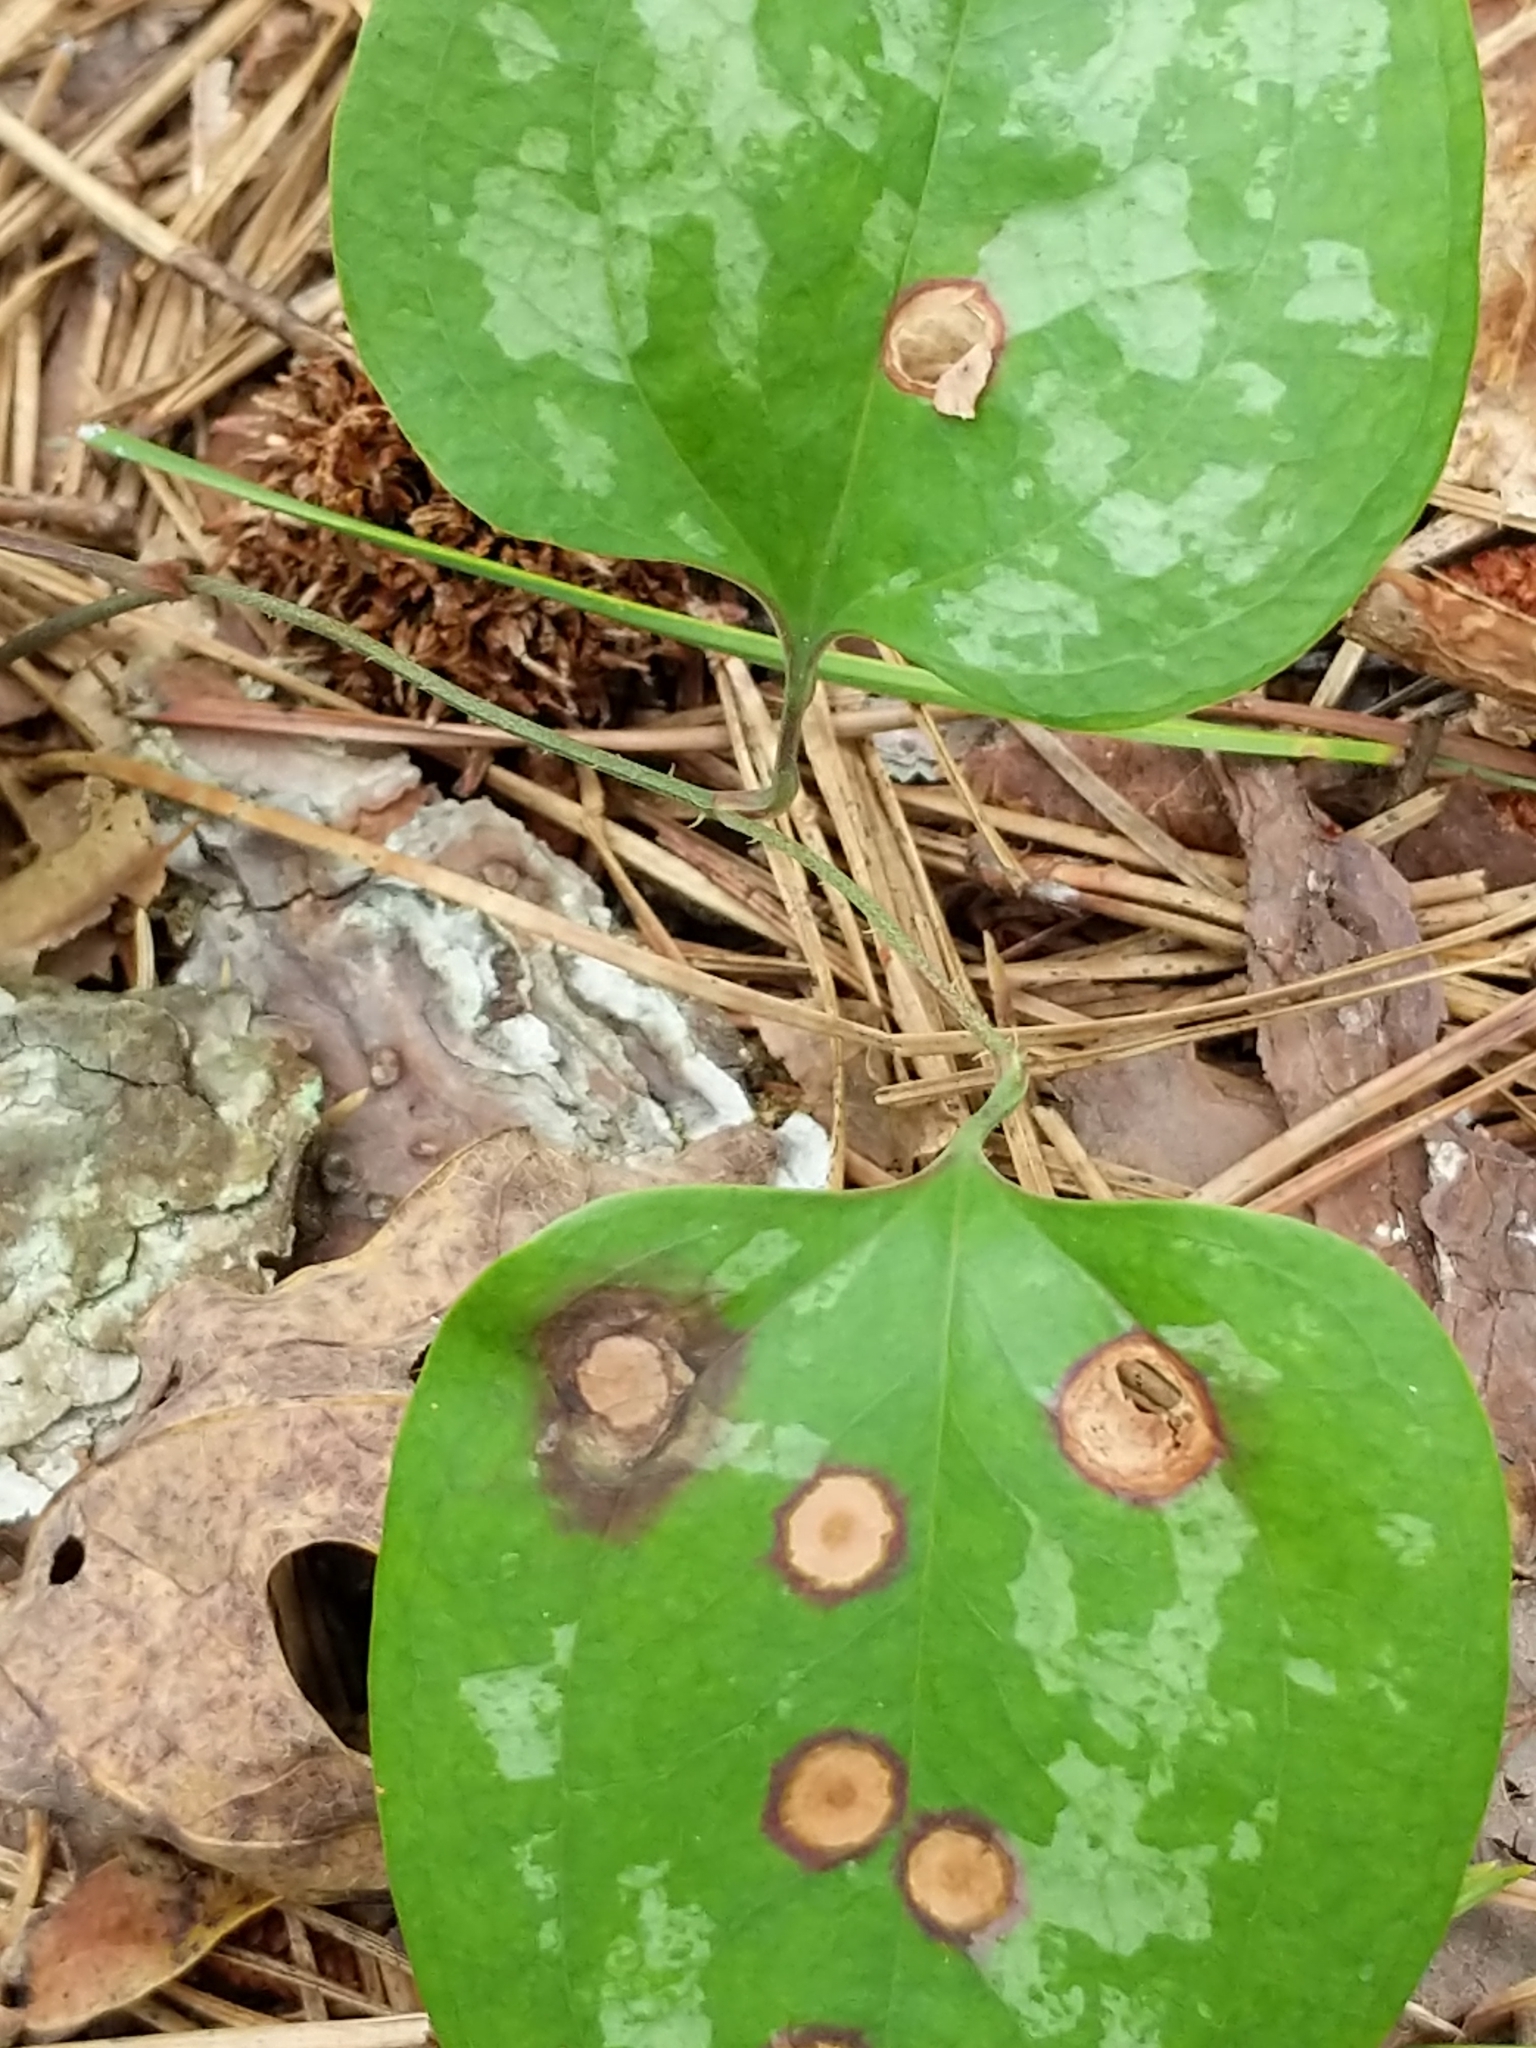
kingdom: Plantae
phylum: Tracheophyta
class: Liliopsida
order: Liliales
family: Smilacaceae
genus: Smilax
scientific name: Smilax glauca
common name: Cat greenbrier
